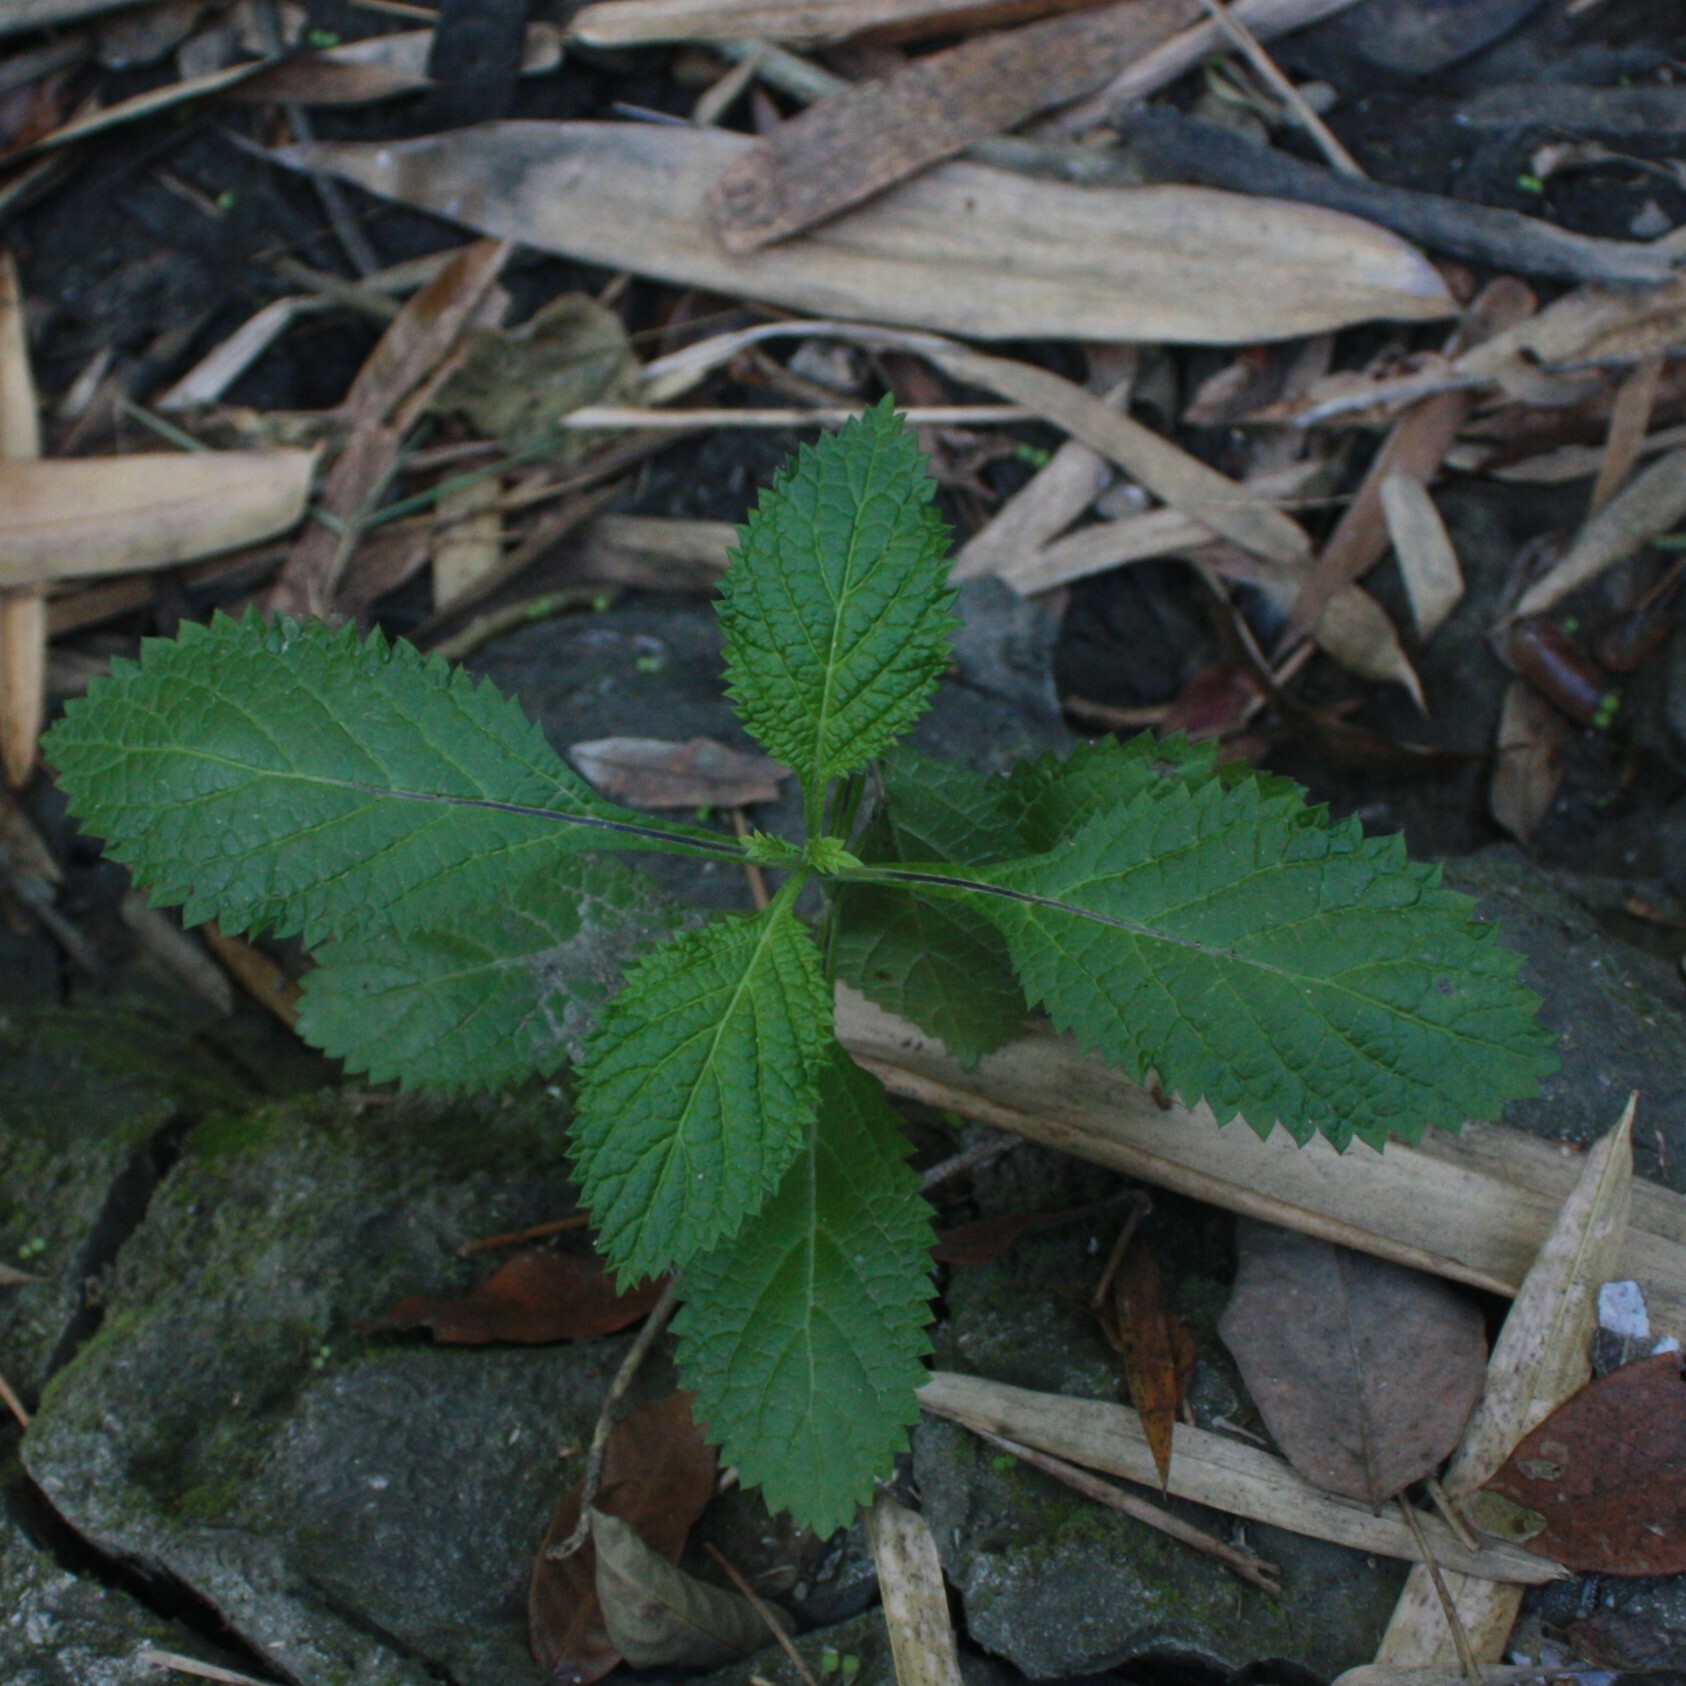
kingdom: Plantae
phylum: Tracheophyta
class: Magnoliopsida
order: Lamiales
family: Verbenaceae
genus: Stachytarpheta
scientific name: Stachytarpheta urticifolia
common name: Nettleleaf velvetberry
